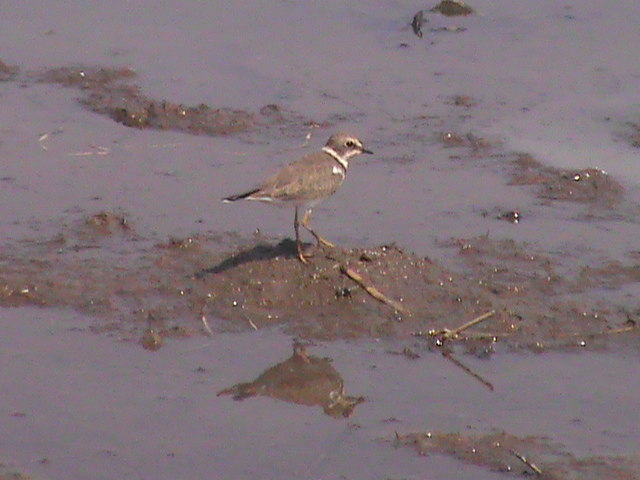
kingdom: Animalia
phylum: Chordata
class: Aves
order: Charadriiformes
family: Charadriidae
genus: Charadrius
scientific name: Charadrius dubius
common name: Little ringed plover
